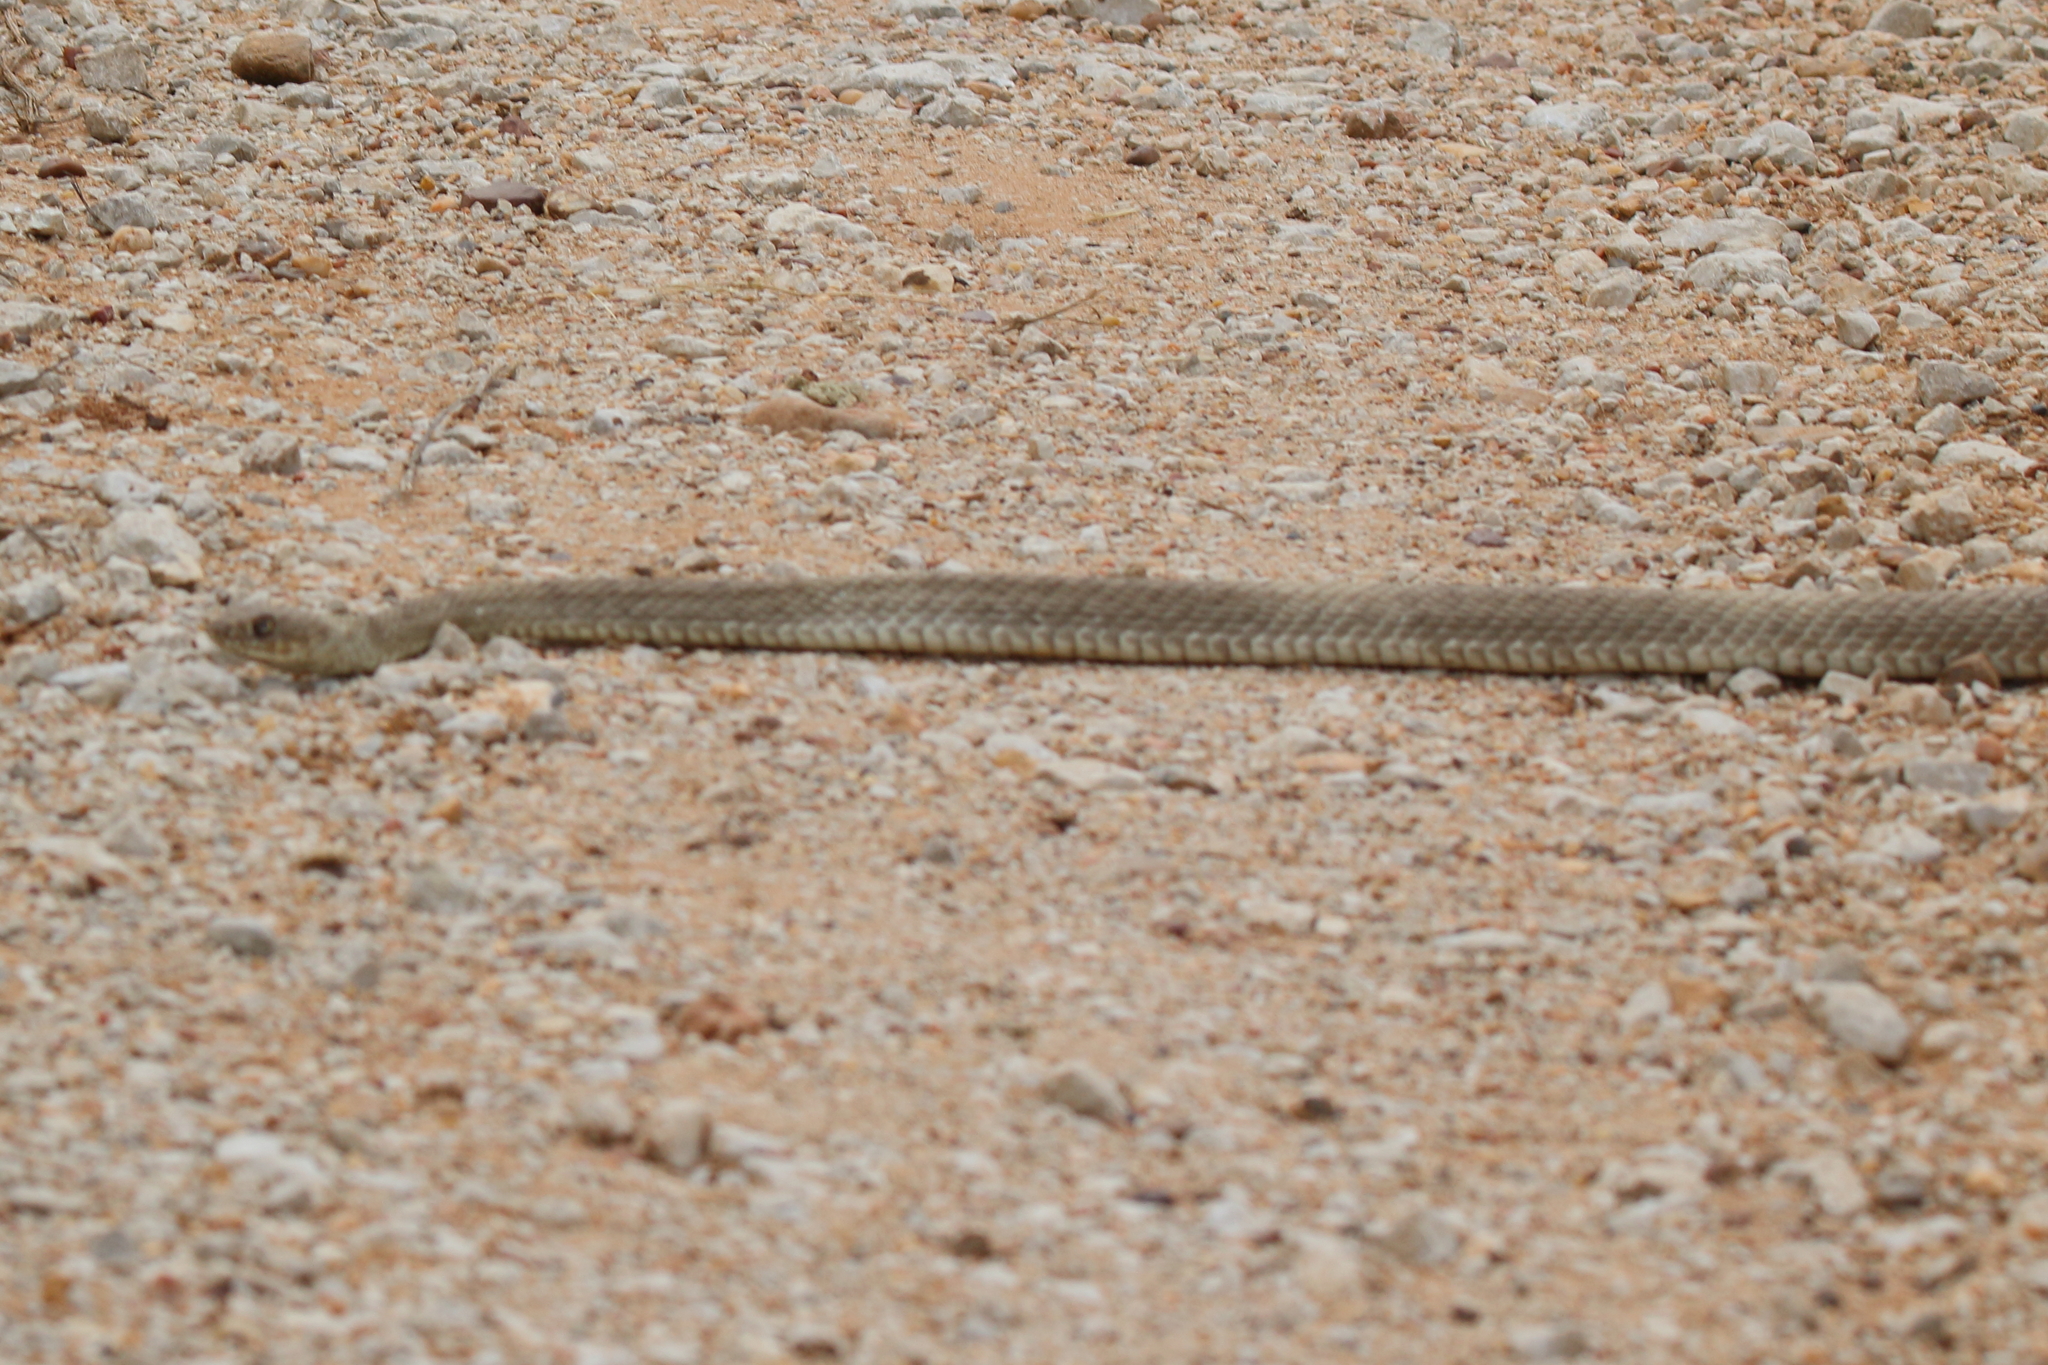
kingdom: Animalia
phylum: Chordata
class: Squamata
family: Colubridae
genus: Masticophis
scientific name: Masticophis flagellum
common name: Coachwhip
